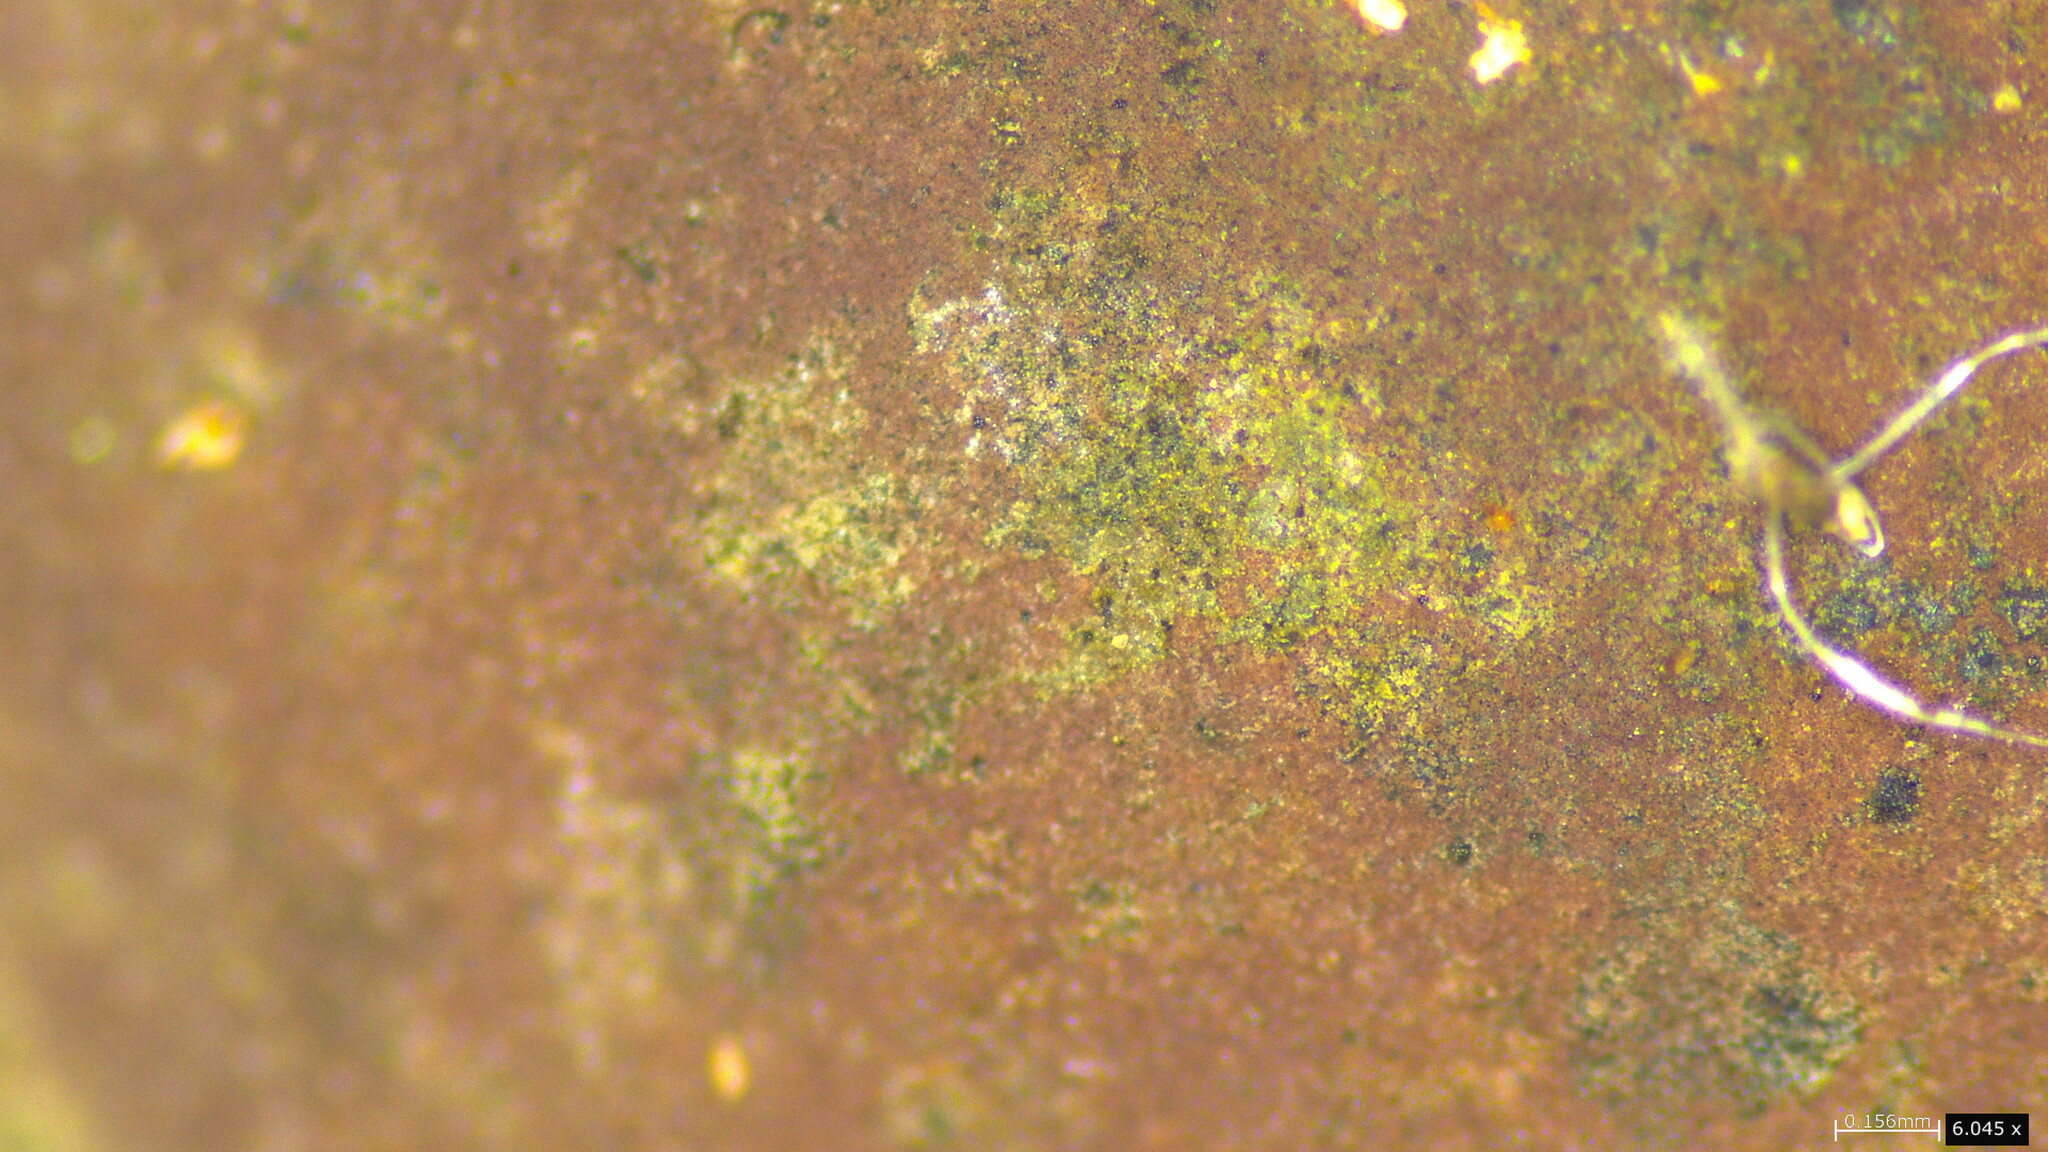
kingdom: Fungi
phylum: Ascomycota
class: Sordariomycetes
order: Xylariales
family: Hypoxylaceae
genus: Daldinia
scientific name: Daldinia childiae
